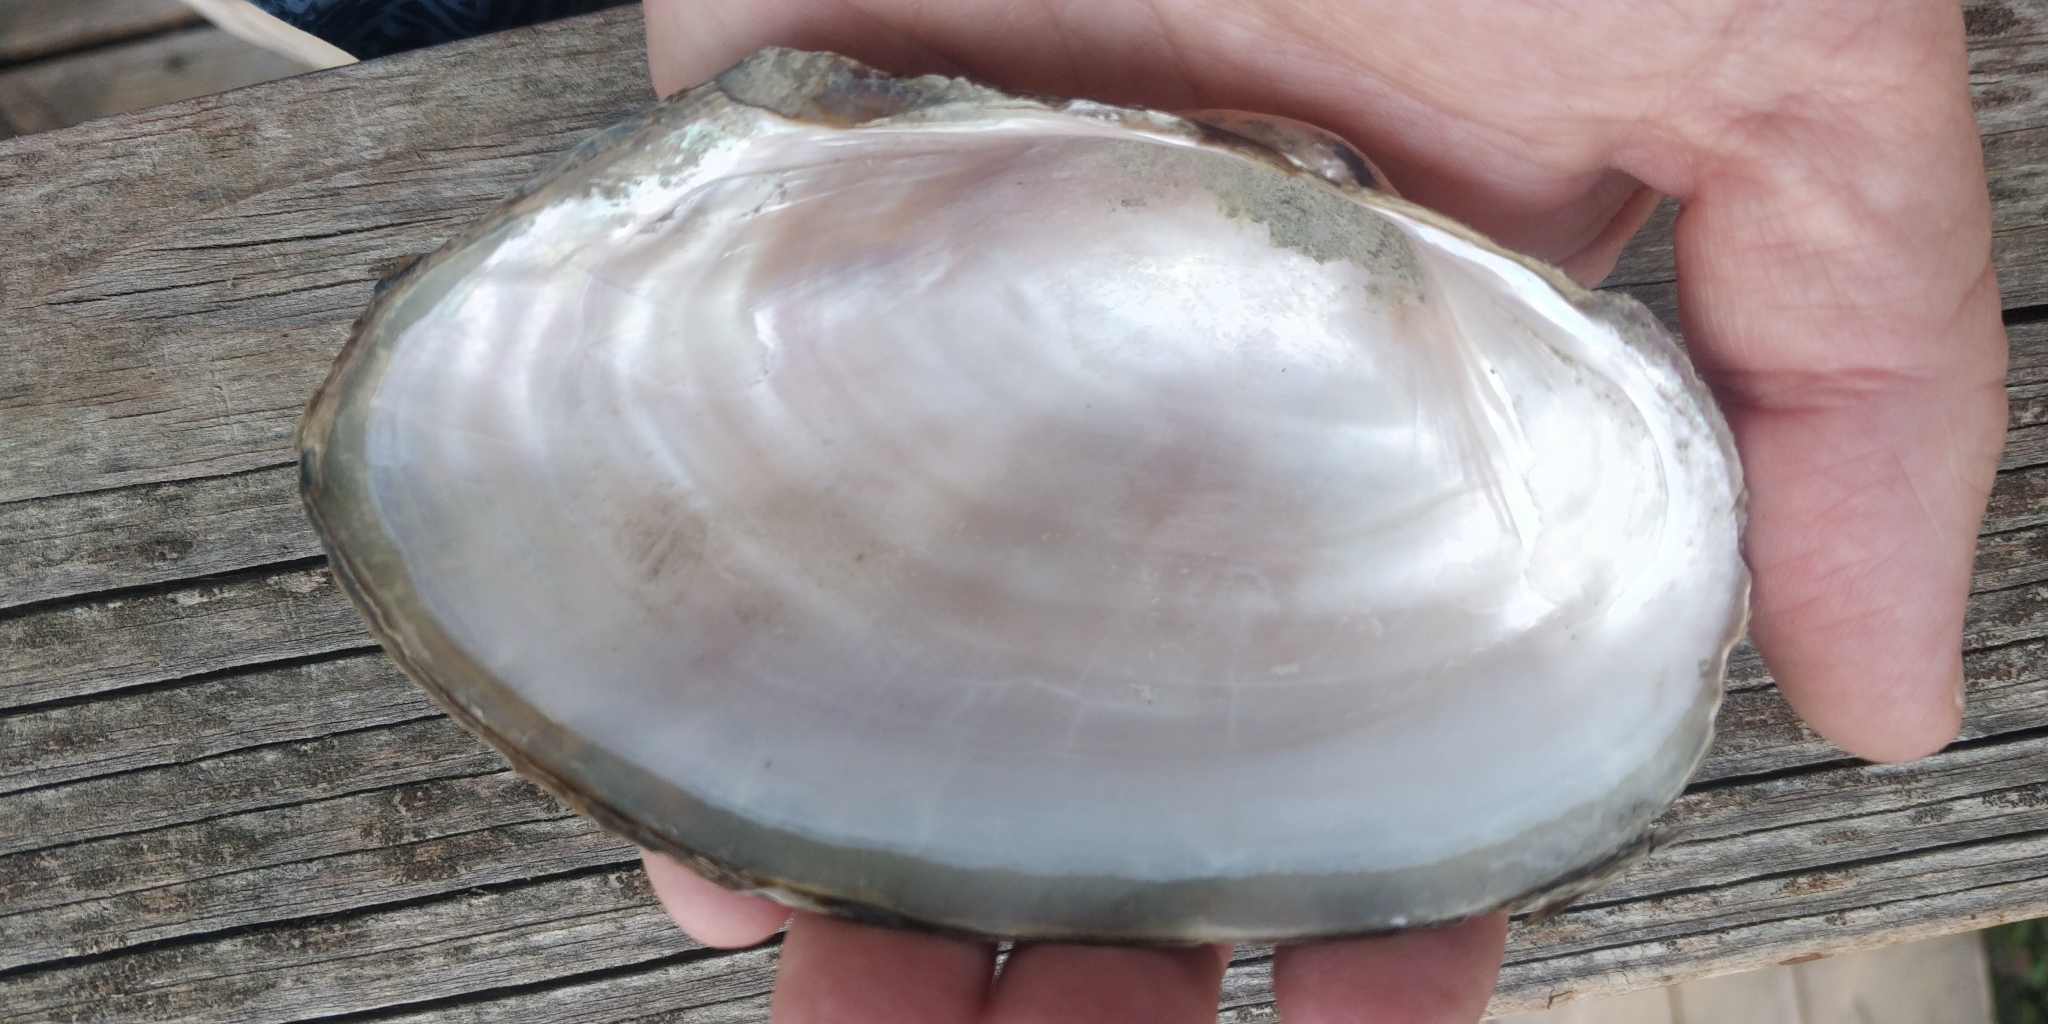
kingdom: Animalia
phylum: Mollusca
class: Bivalvia
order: Unionida
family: Unionidae
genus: Pyganodon
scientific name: Pyganodon grandis
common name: Giant floater
